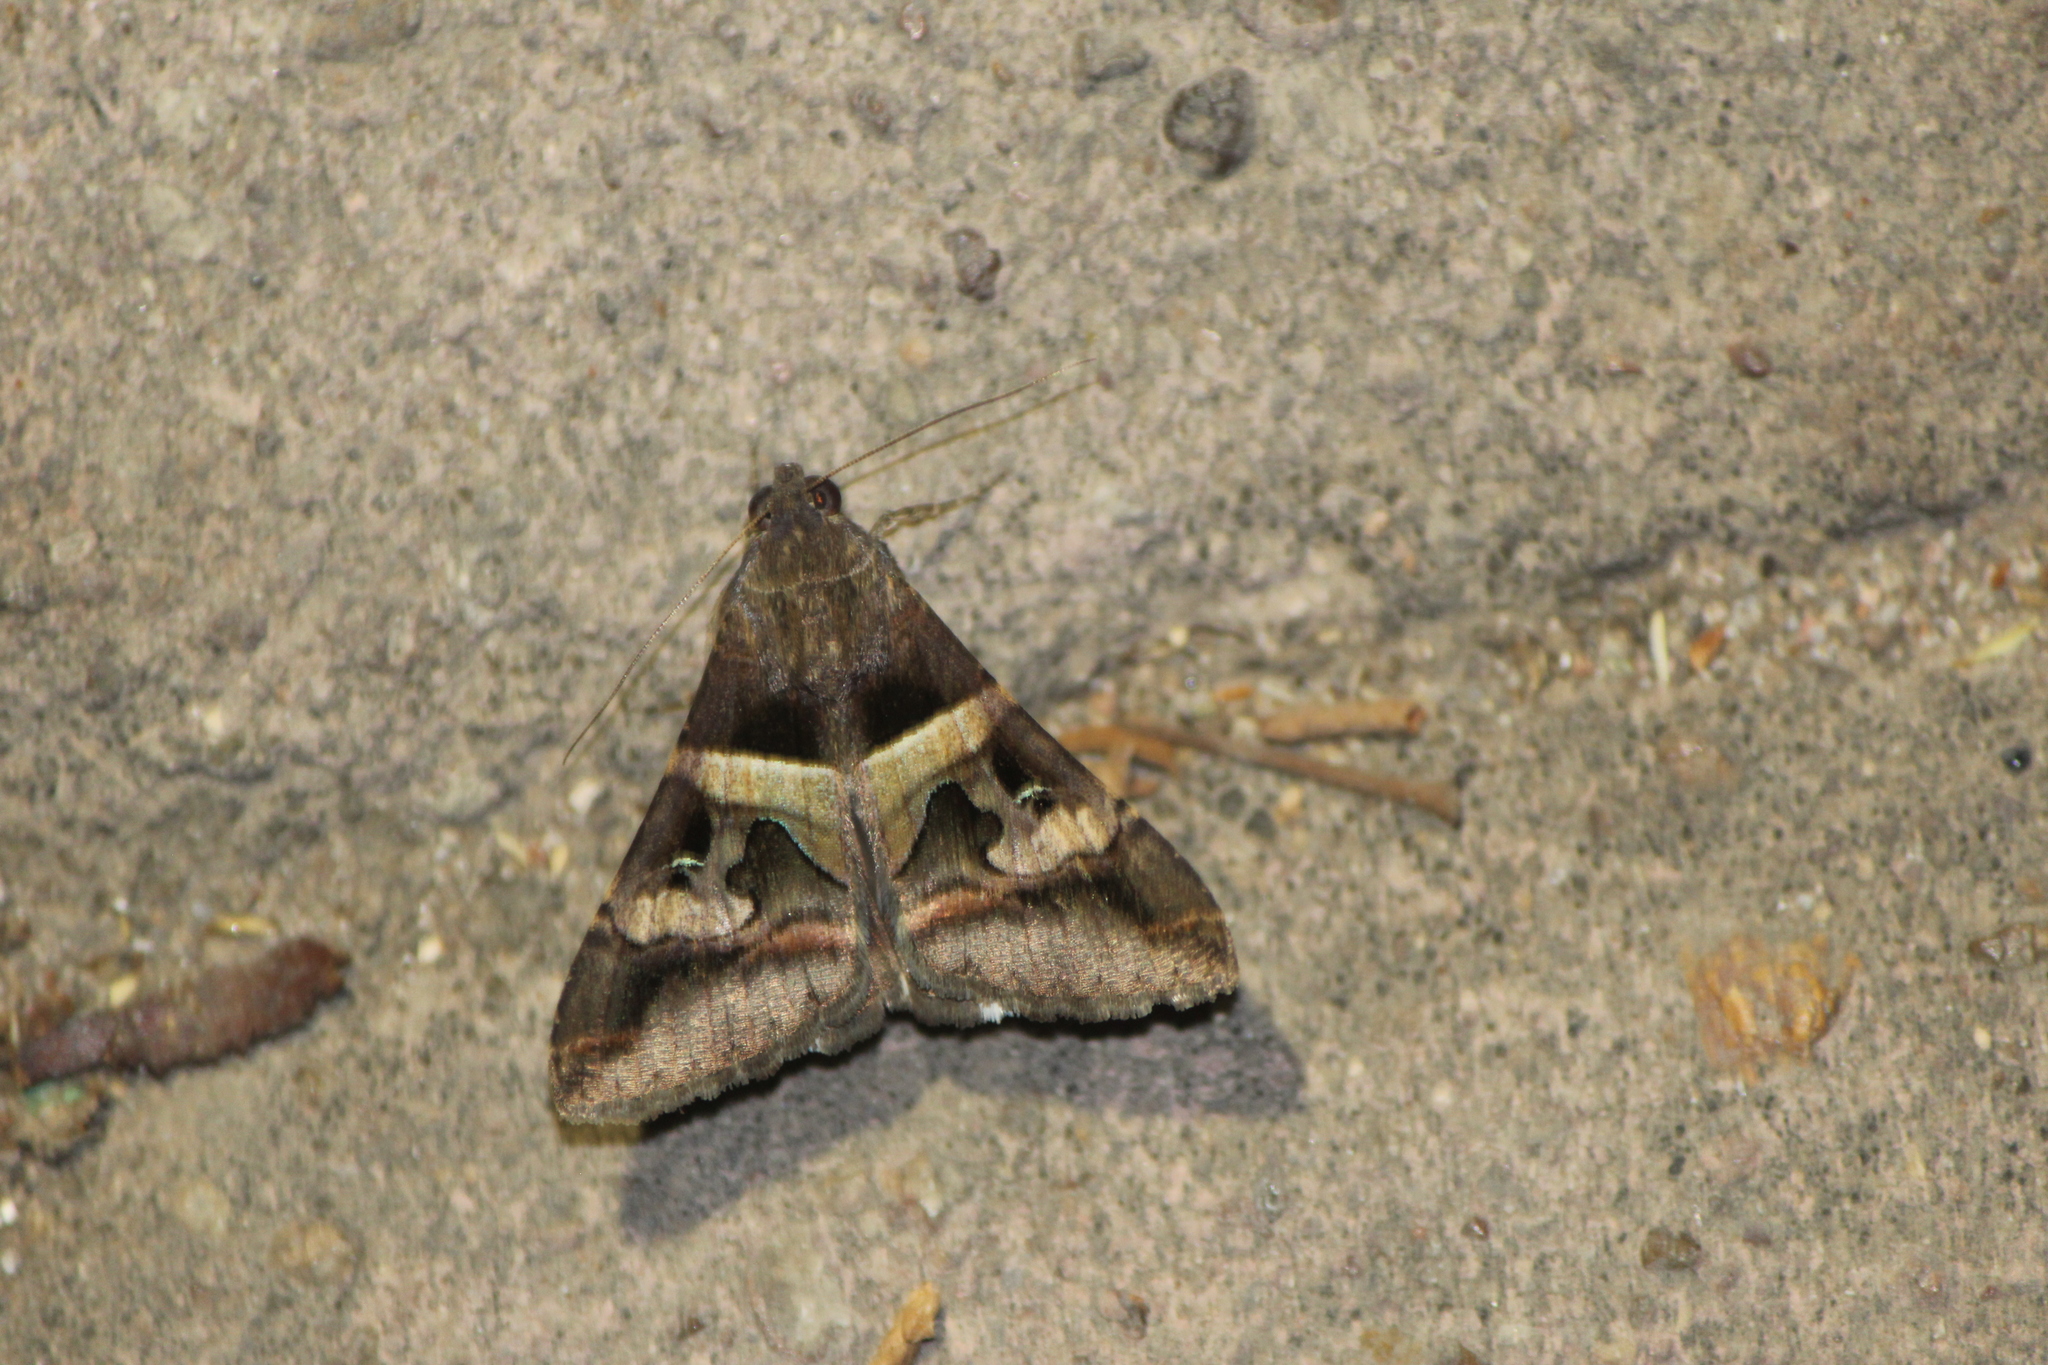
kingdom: Animalia
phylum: Arthropoda
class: Insecta
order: Lepidoptera
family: Erebidae
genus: Melipotis
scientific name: Melipotis perpendicularis
